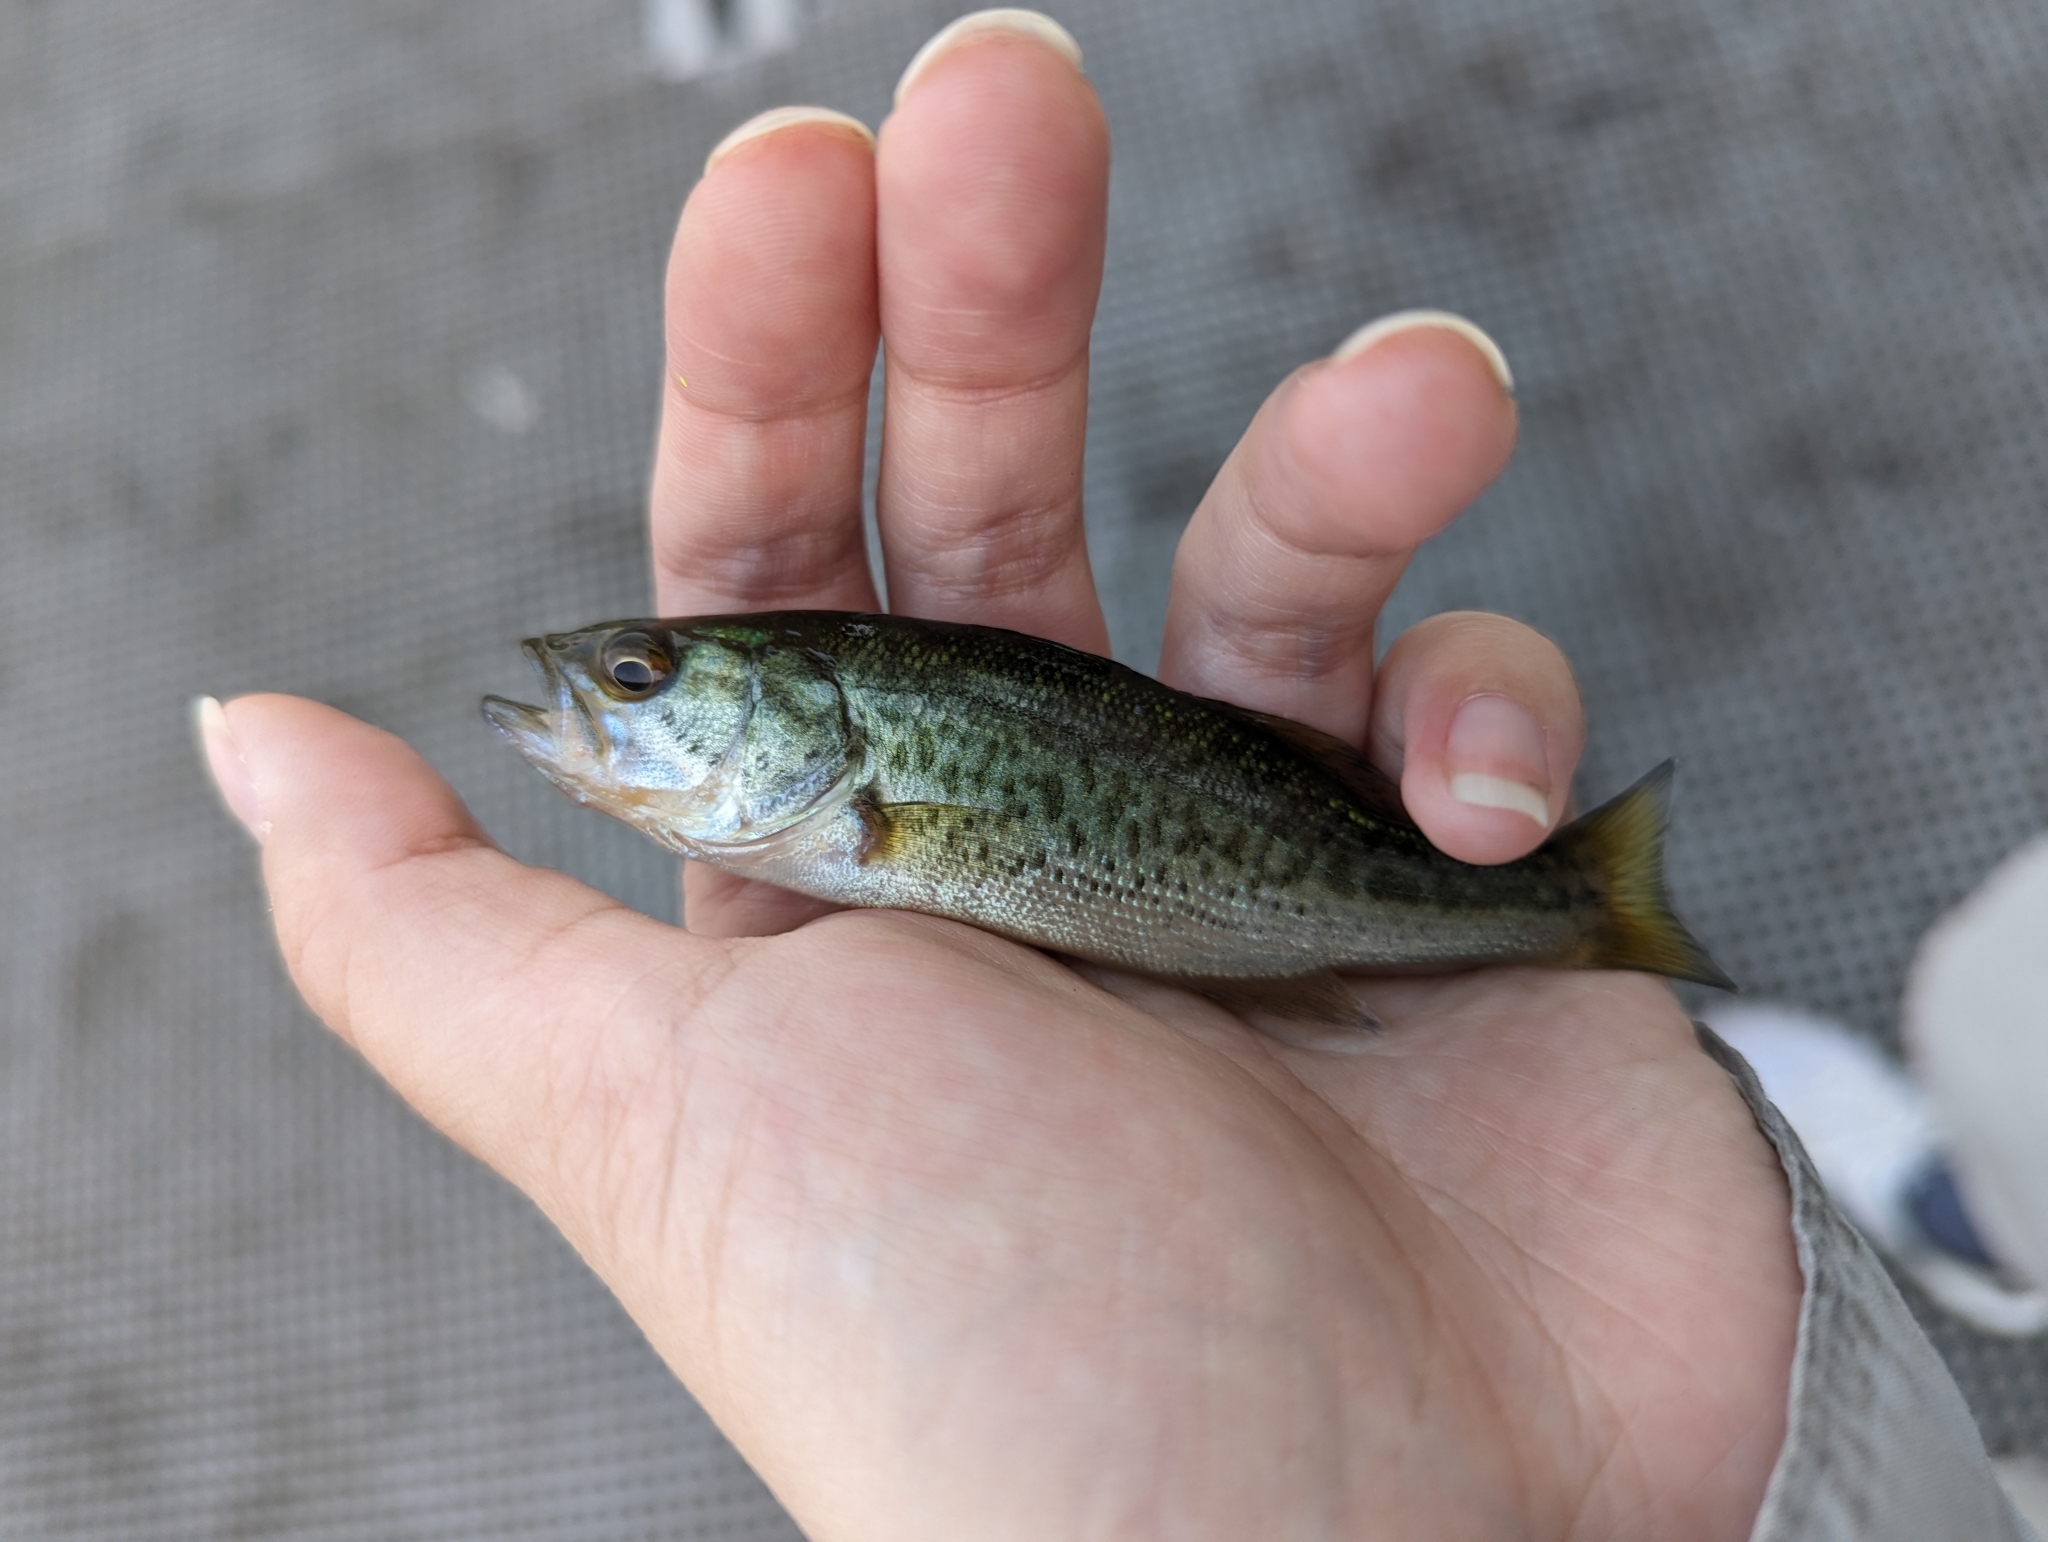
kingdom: Animalia
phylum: Chordata
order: Perciformes
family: Centrarchidae
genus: Micropterus
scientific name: Micropterus
